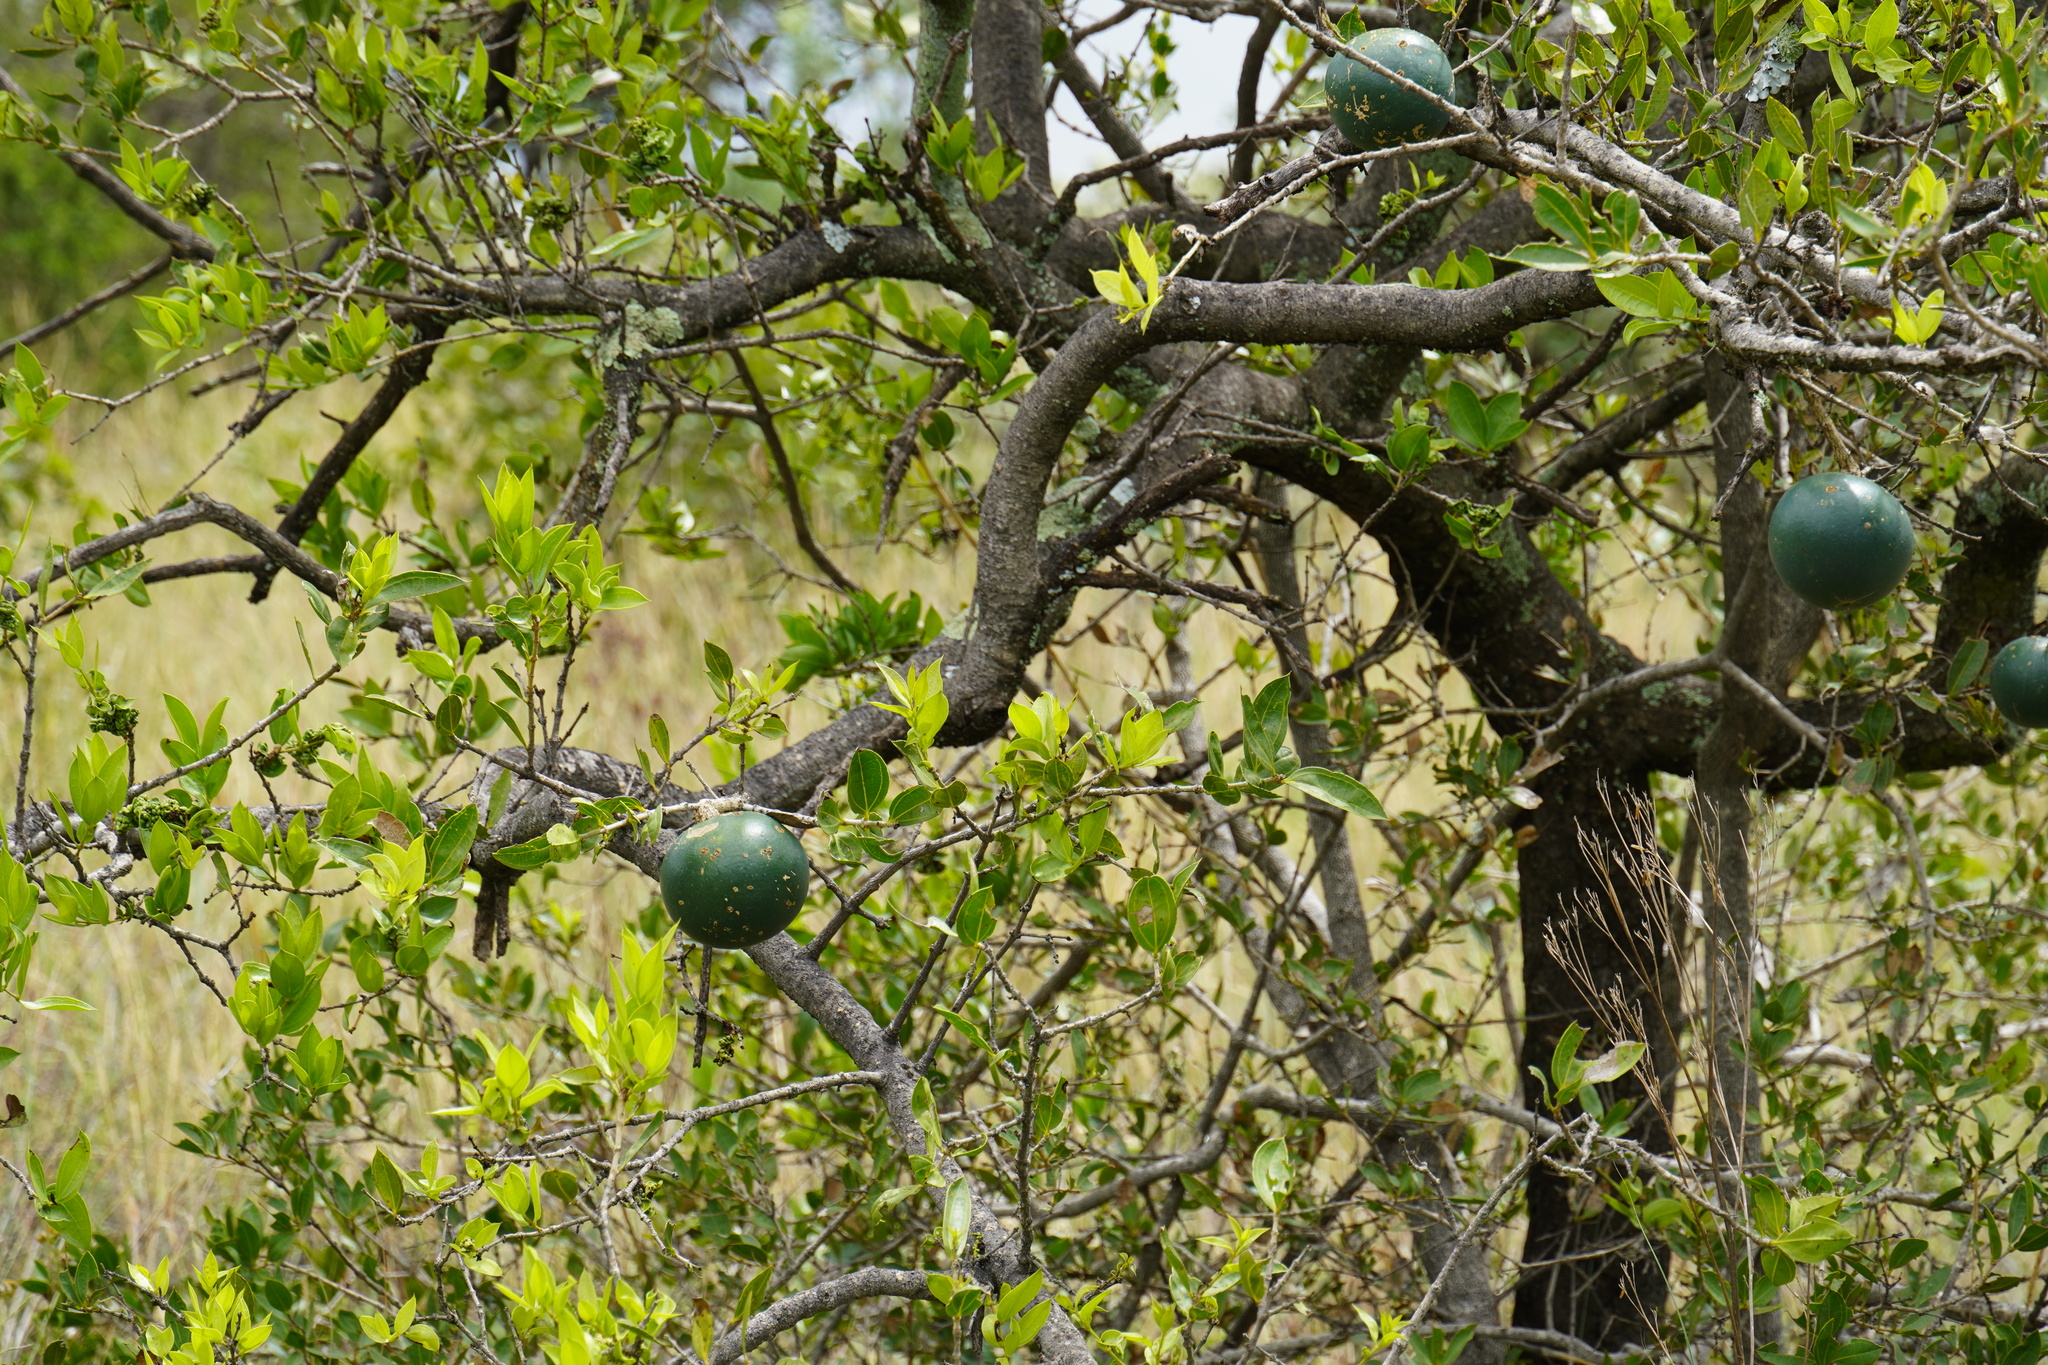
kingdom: Plantae
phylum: Tracheophyta
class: Magnoliopsida
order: Gentianales
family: Loganiaceae
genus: Strychnos
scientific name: Strychnos pungens
